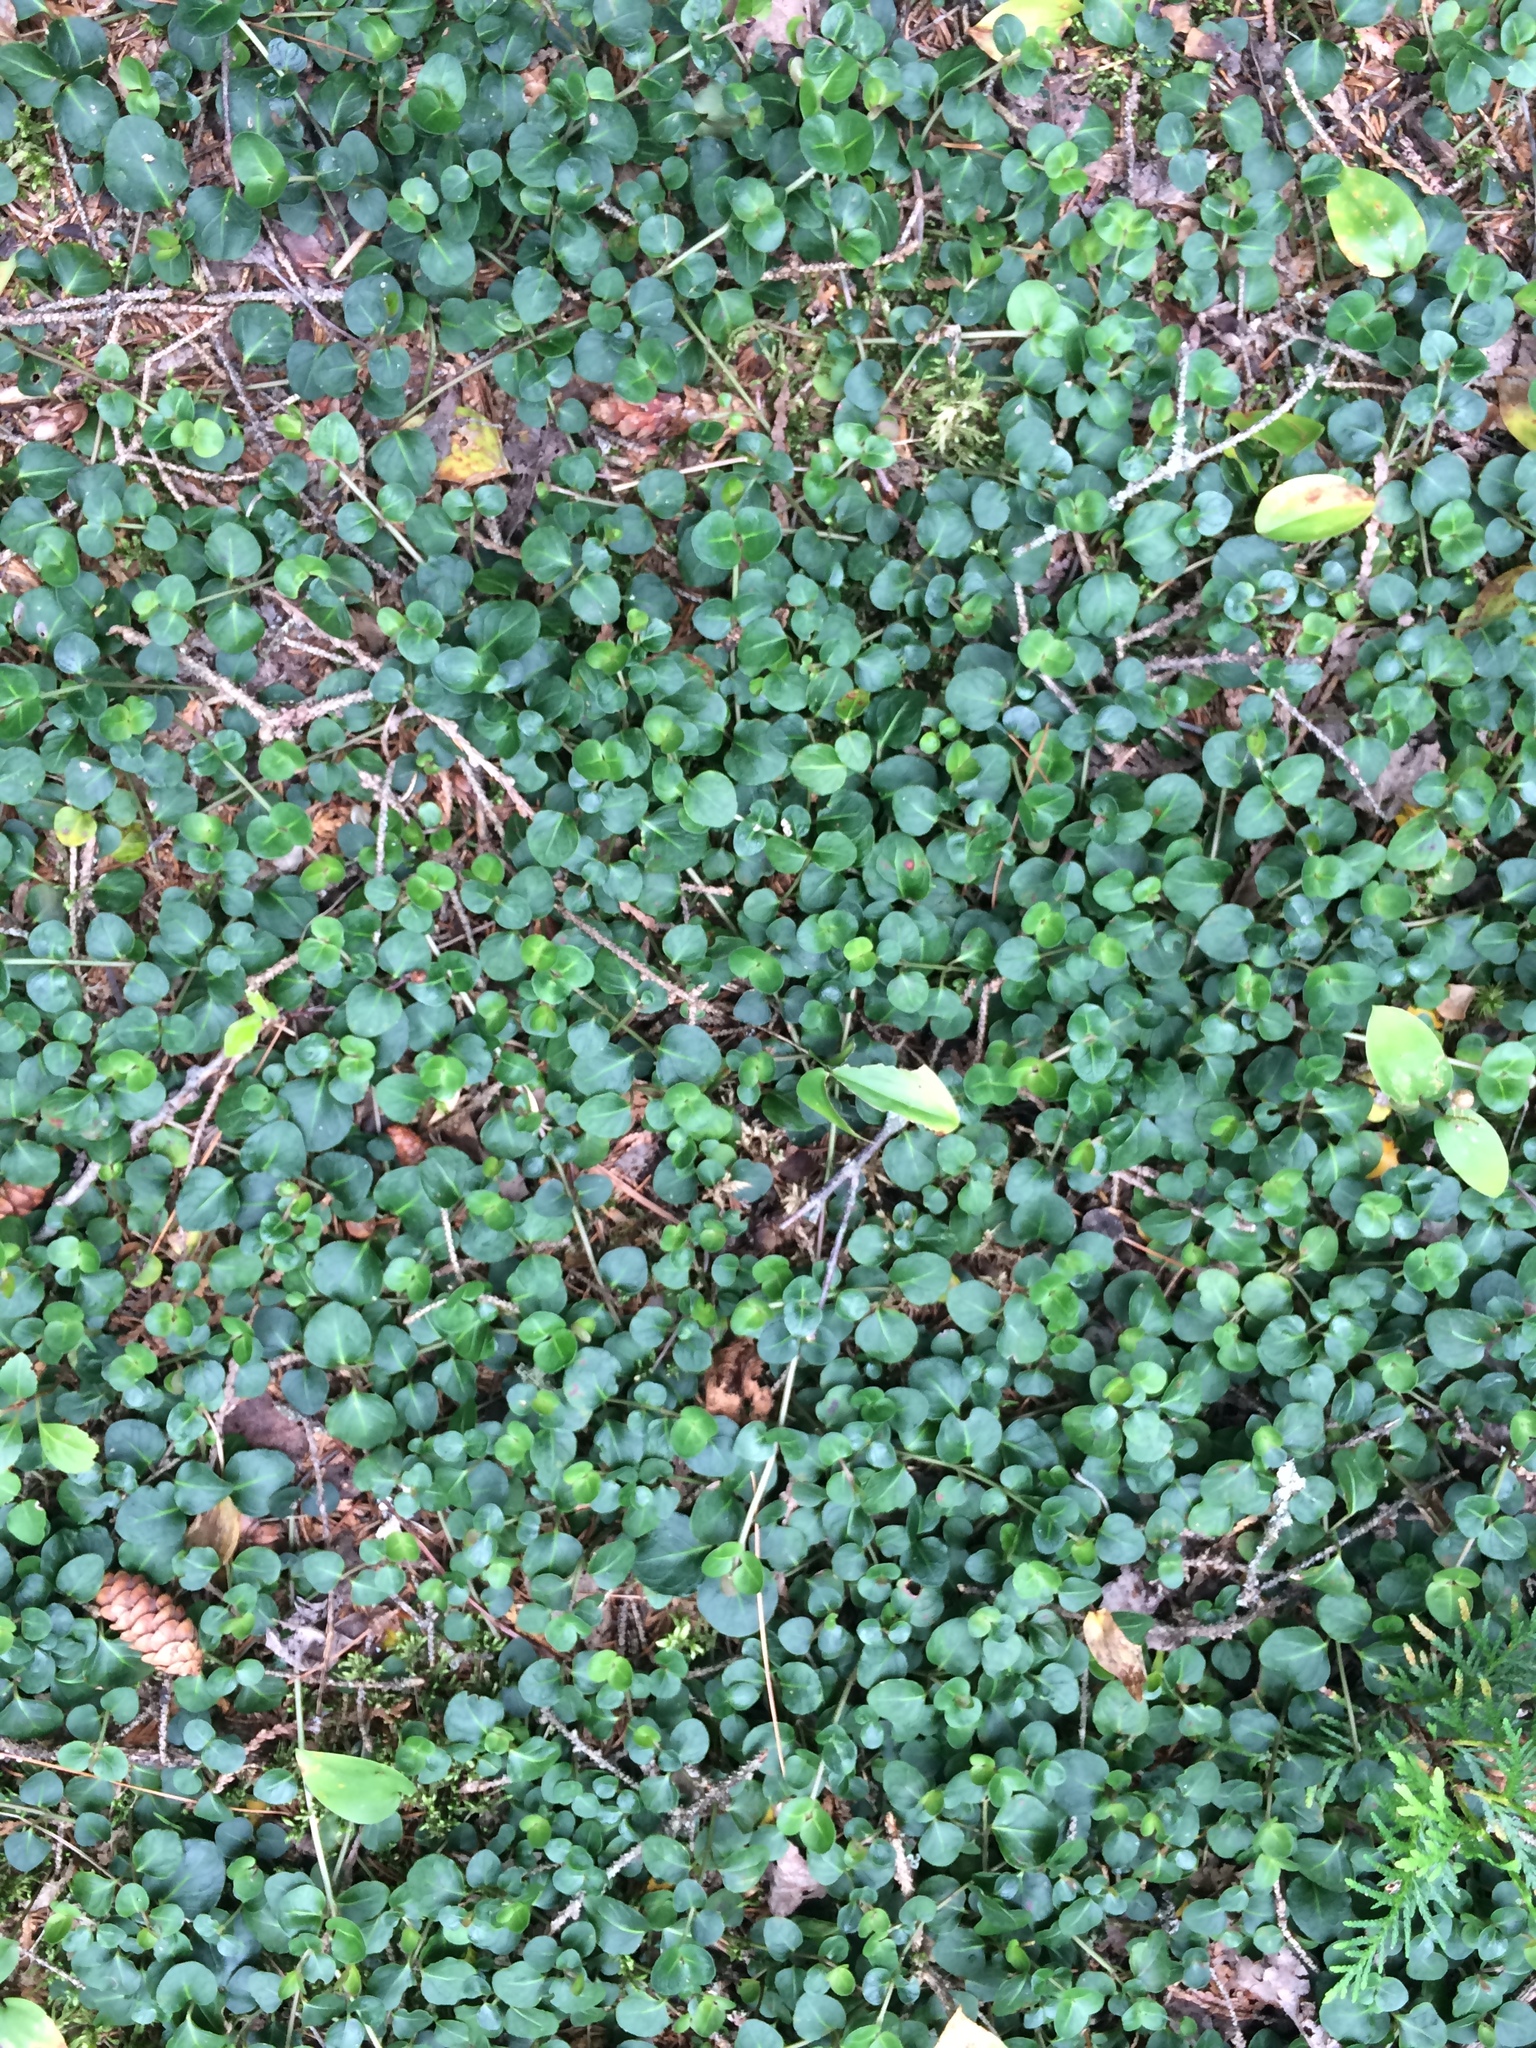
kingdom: Plantae
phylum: Tracheophyta
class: Magnoliopsida
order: Gentianales
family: Rubiaceae
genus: Mitchella
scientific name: Mitchella repens
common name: Partridge-berry
